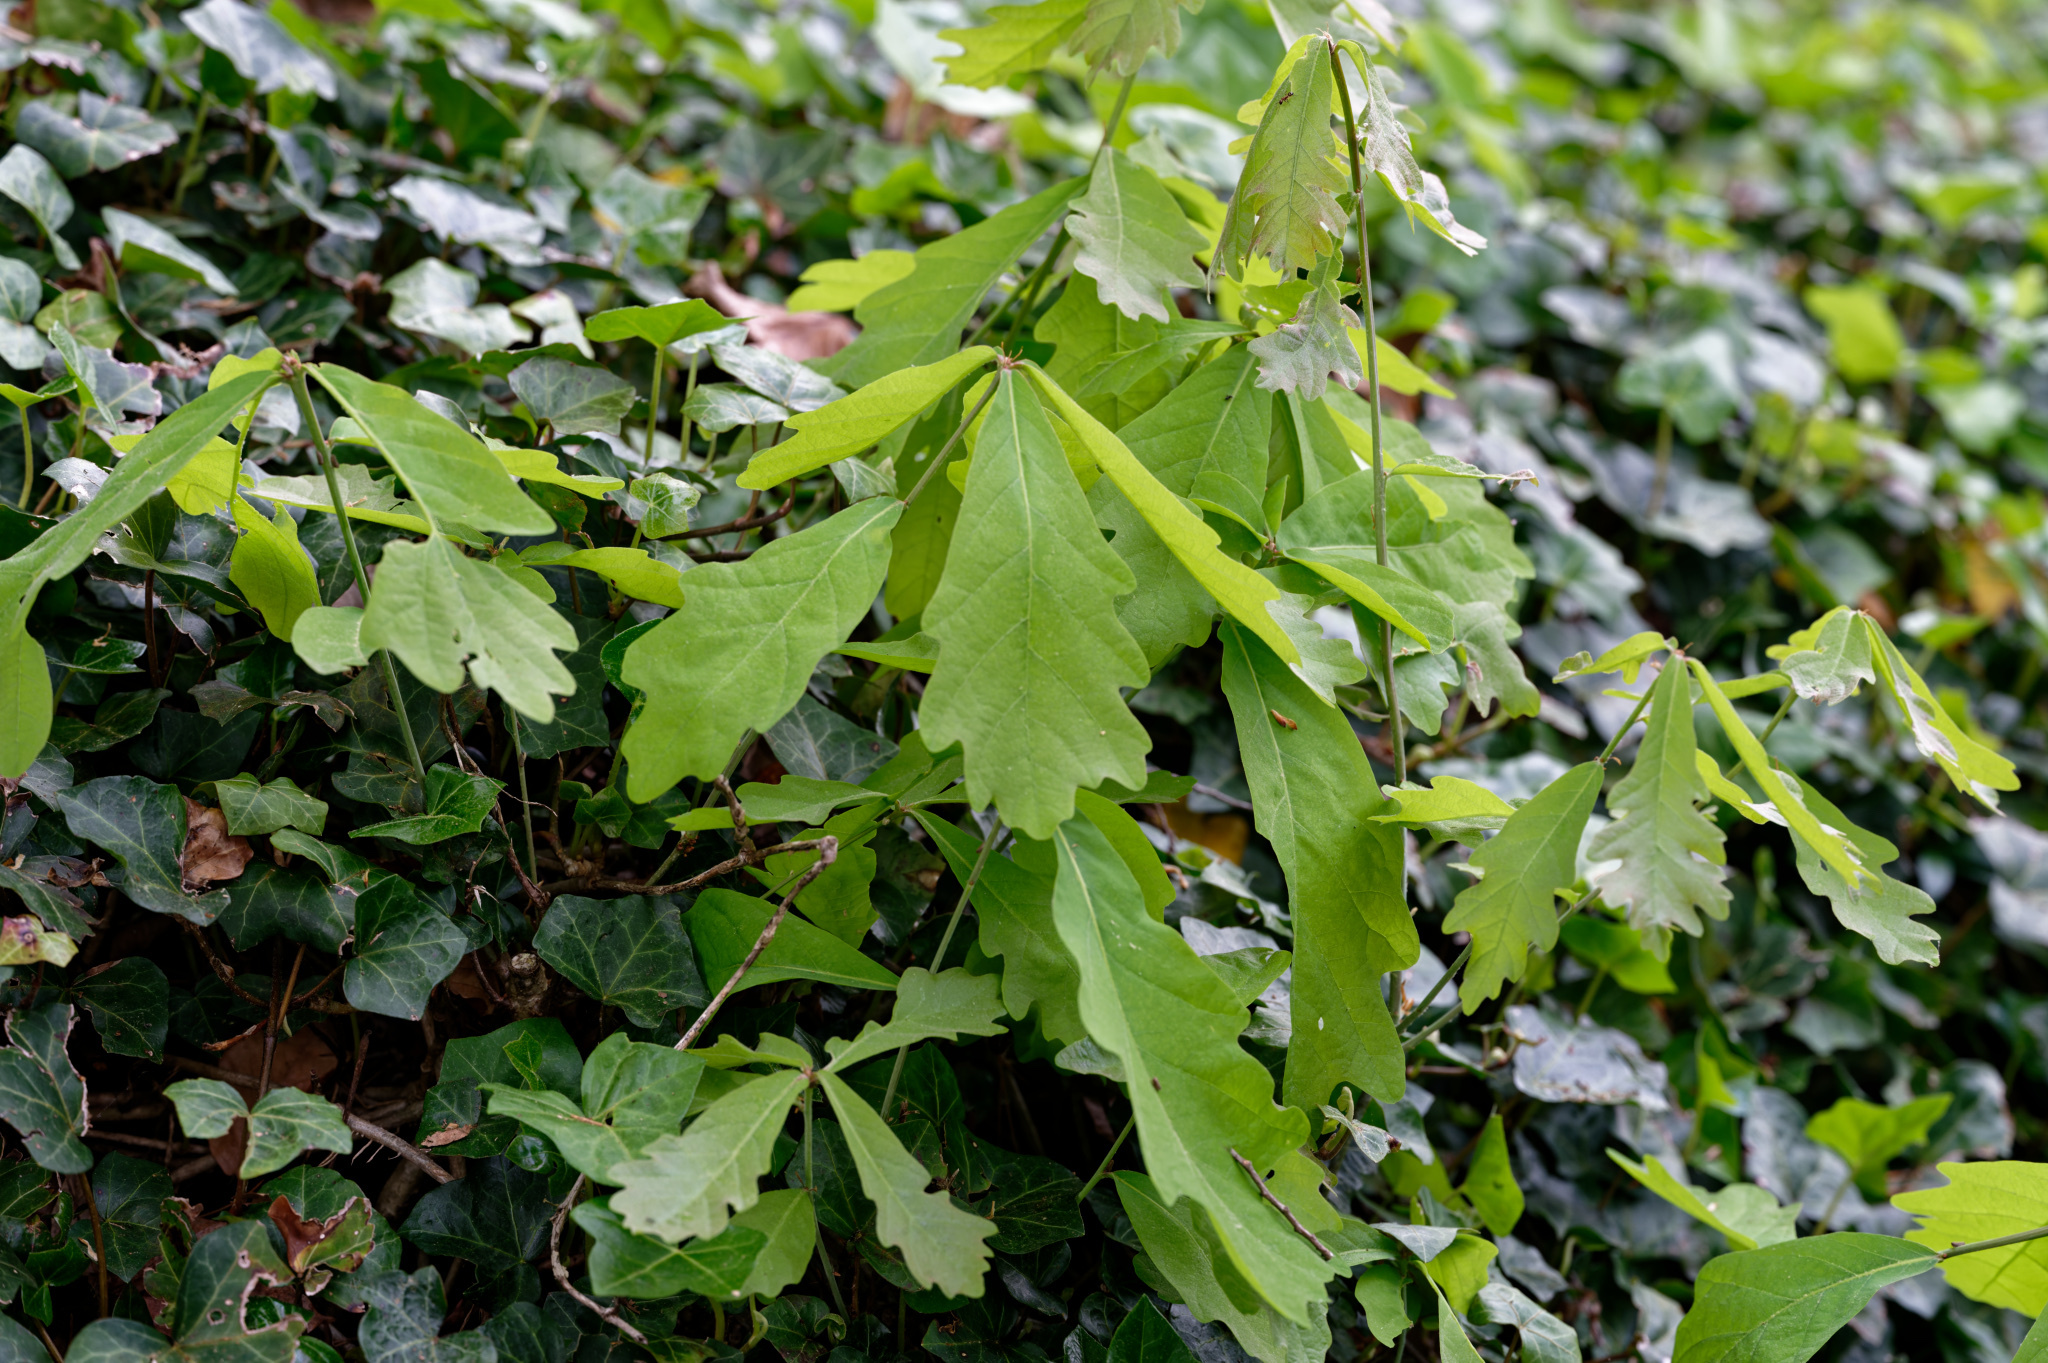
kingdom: Plantae
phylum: Tracheophyta
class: Magnoliopsida
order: Fagales
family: Fagaceae
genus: Quercus
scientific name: Quercus alba
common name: White oak
